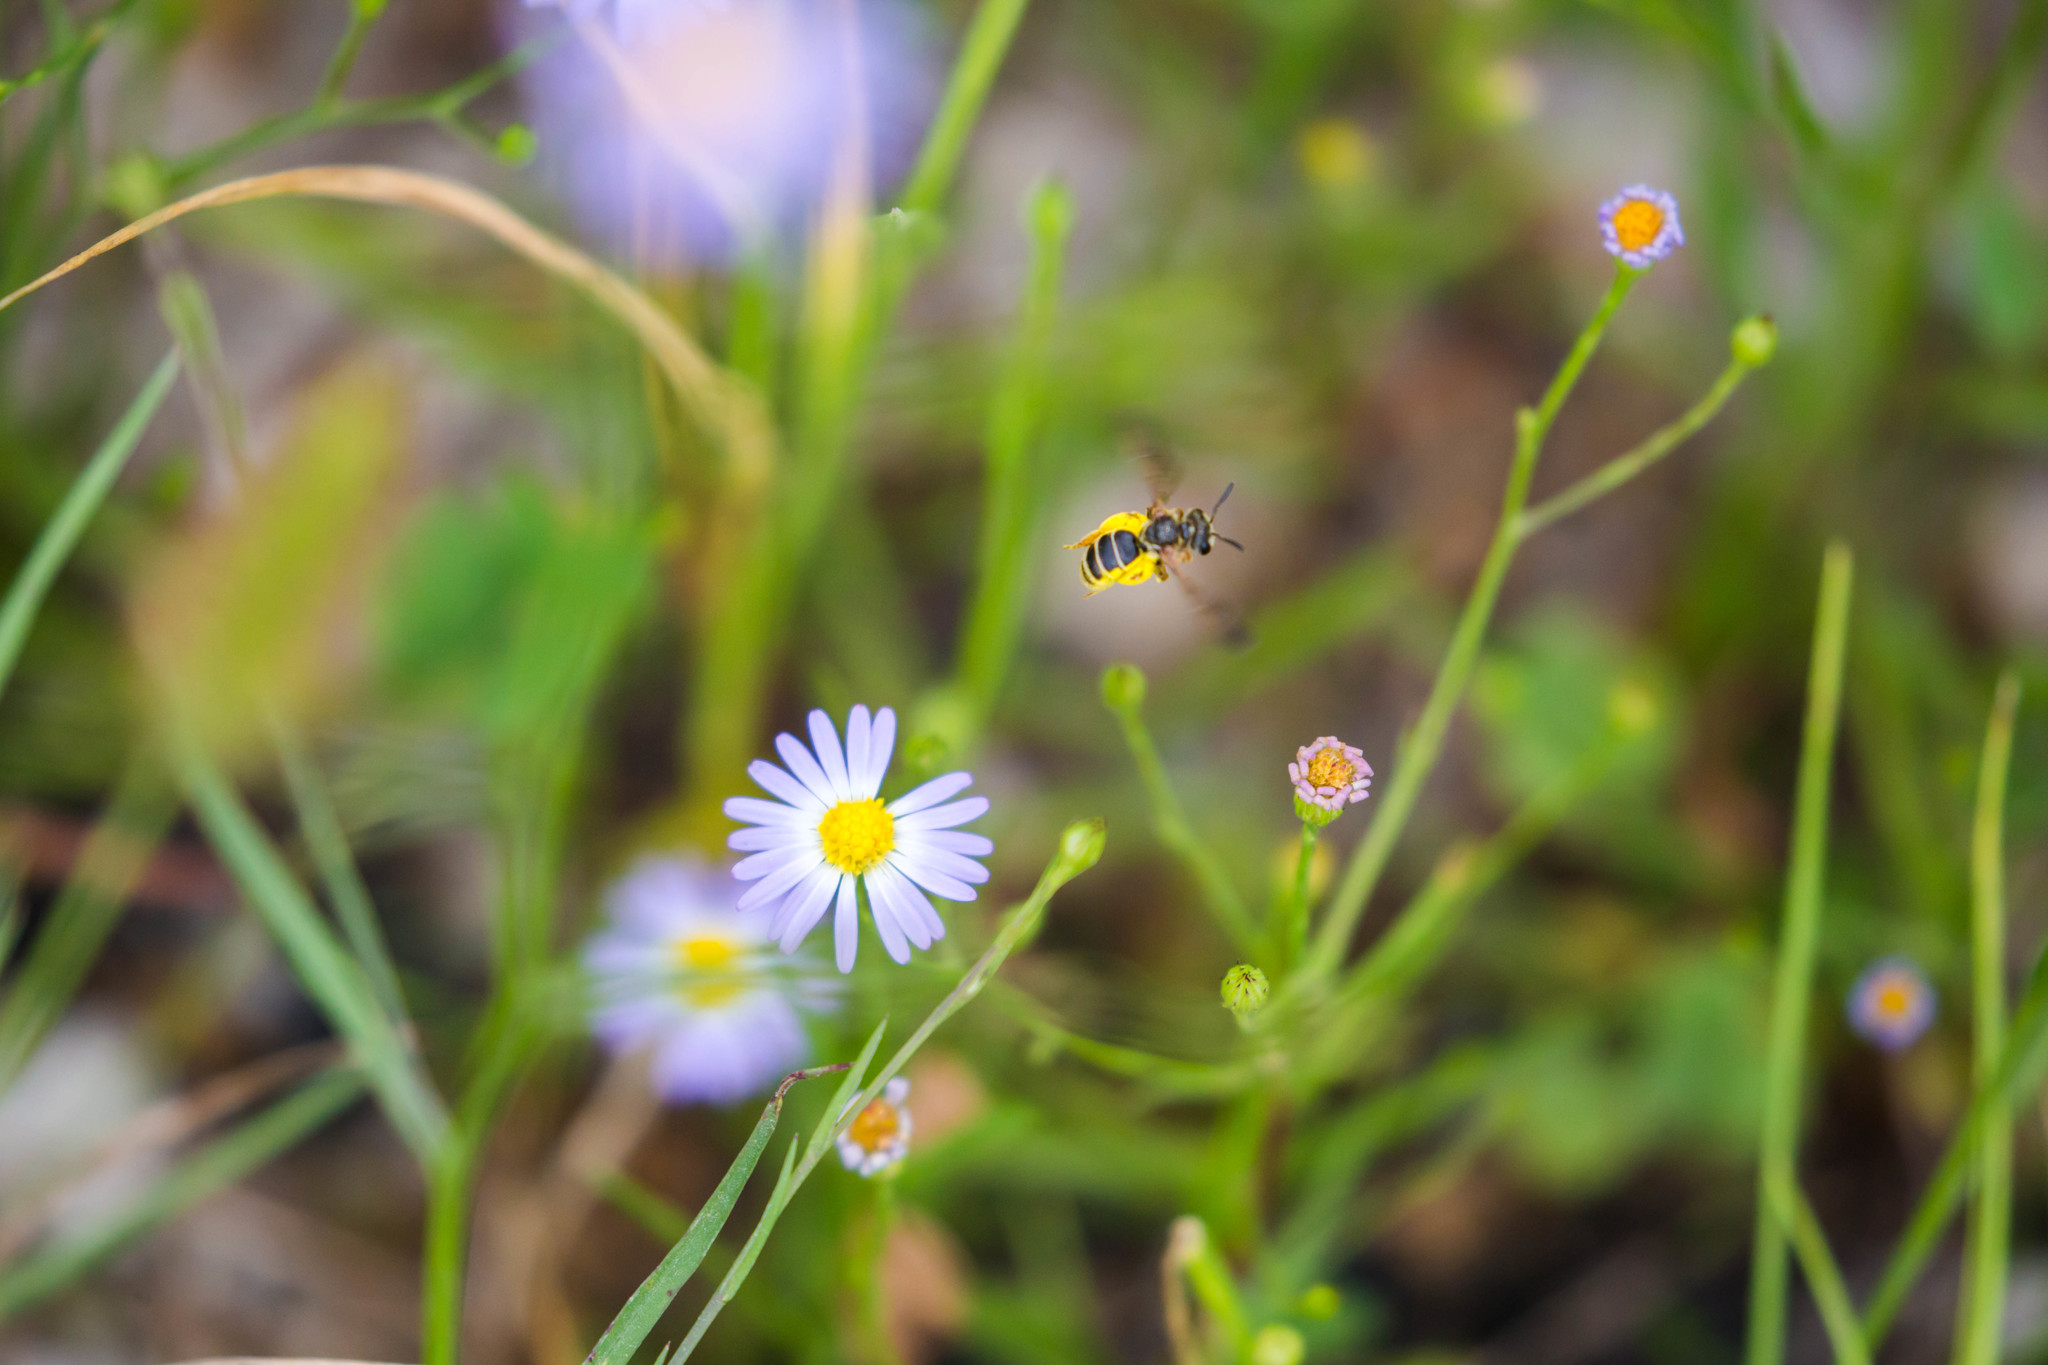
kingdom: Animalia
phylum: Arthropoda
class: Insecta
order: Hymenoptera
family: Halictidae
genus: Dieunomia
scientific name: Dieunomia nevadensis
